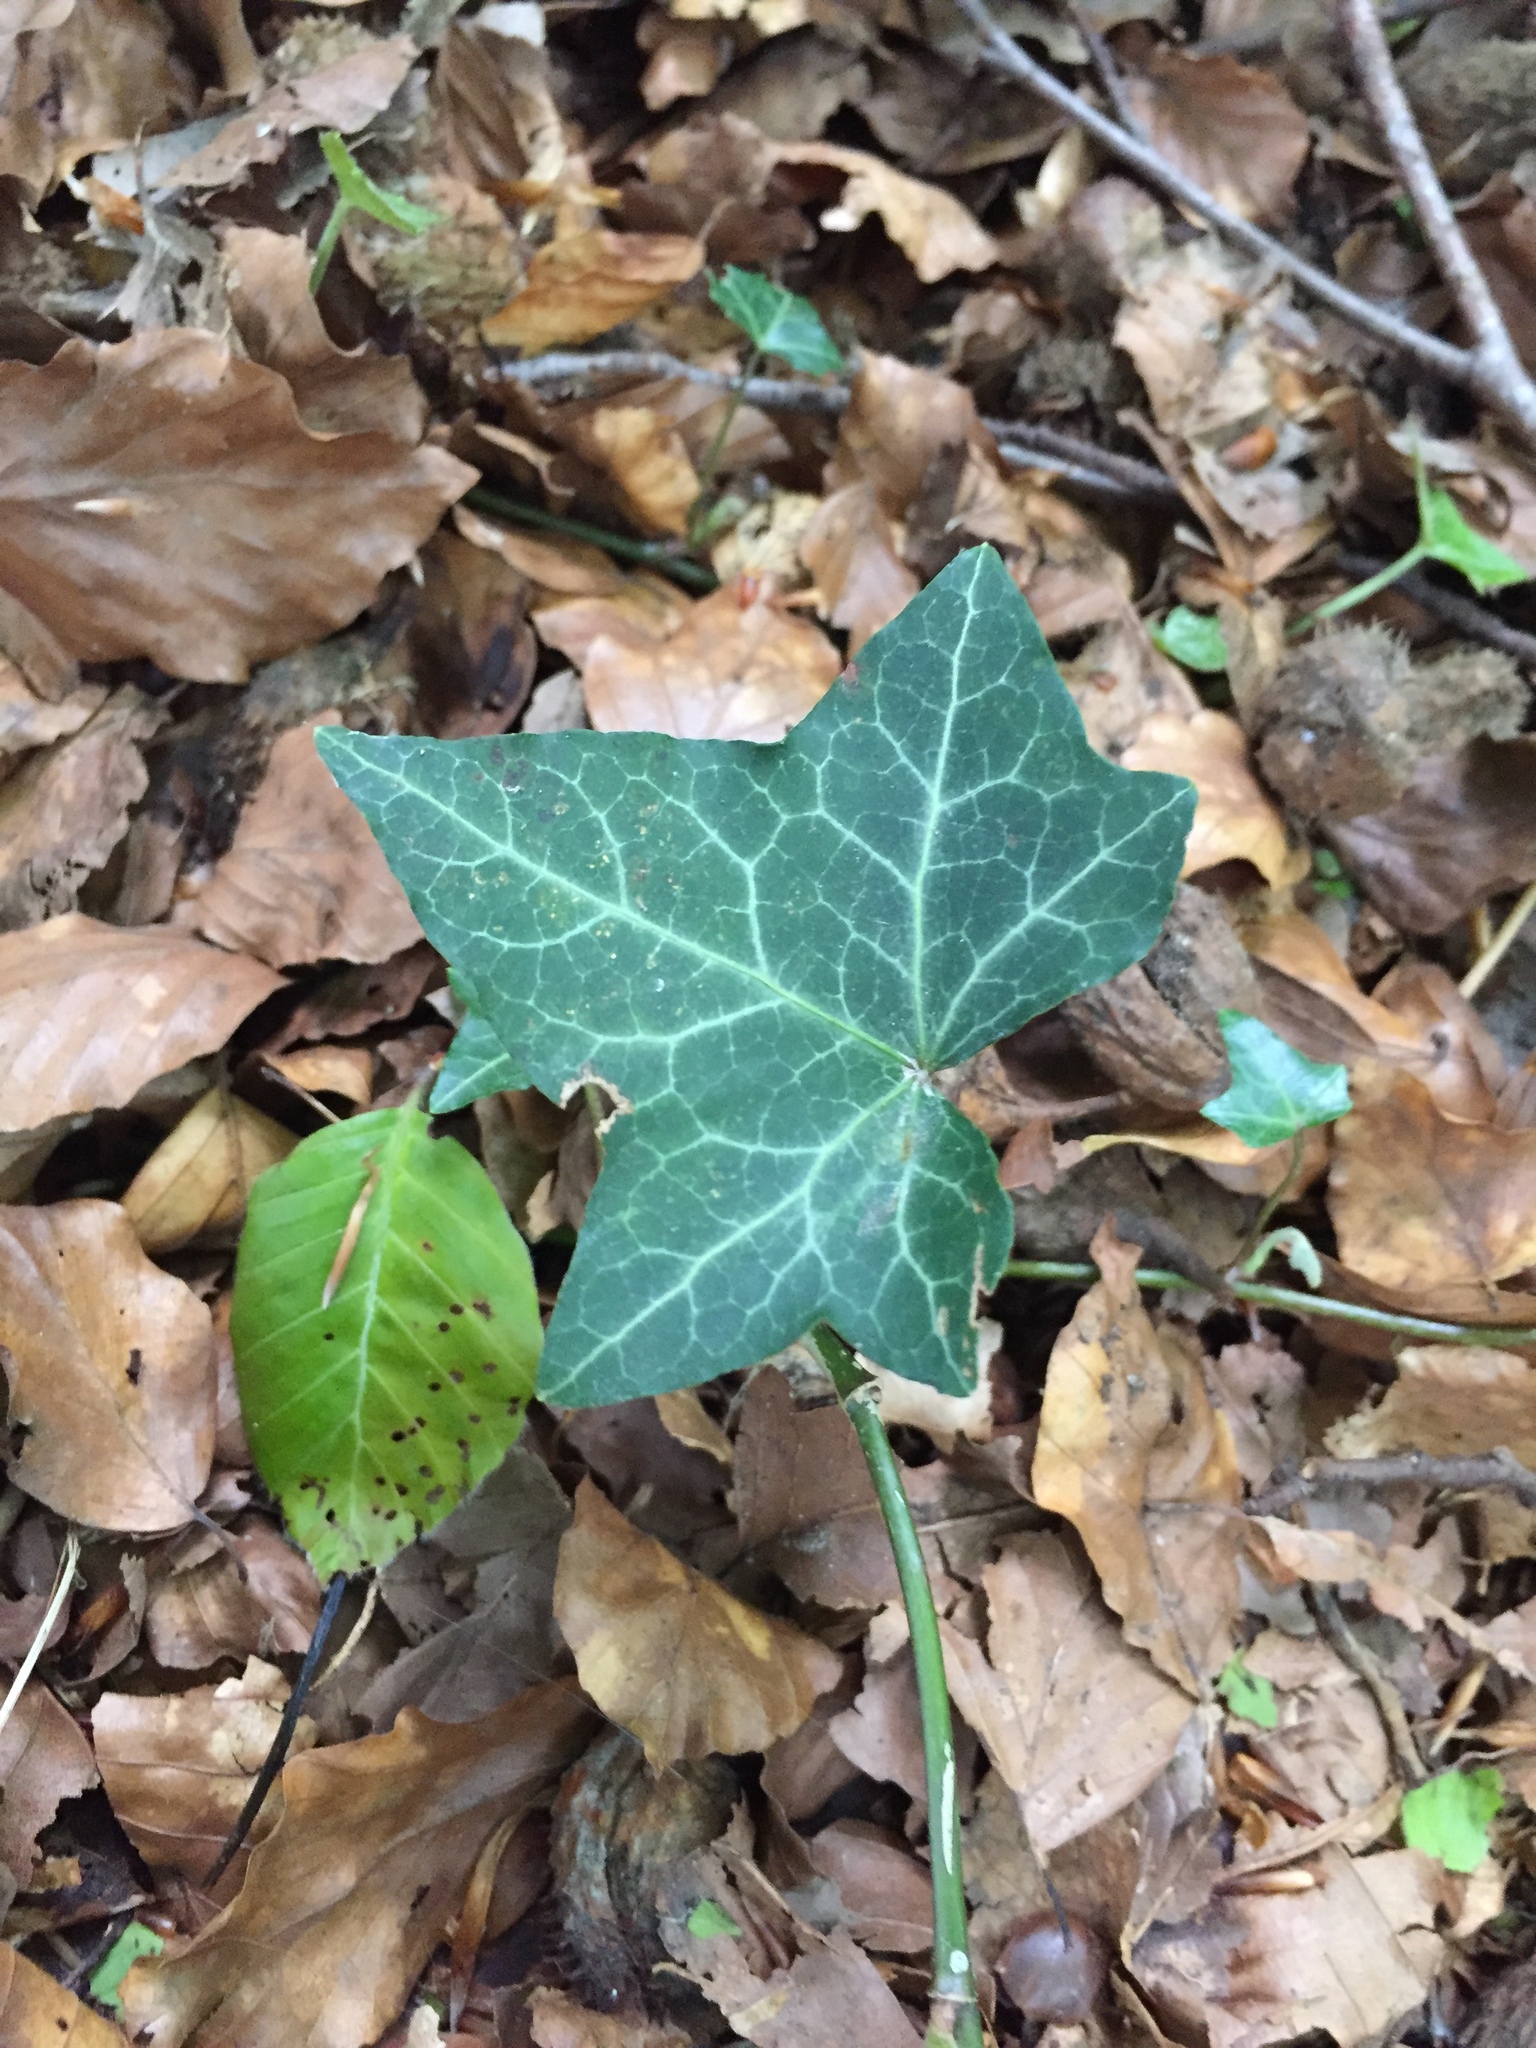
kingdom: Plantae
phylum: Tracheophyta
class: Magnoliopsida
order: Apiales
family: Araliaceae
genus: Hedera
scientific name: Hedera helix
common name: Ivy
